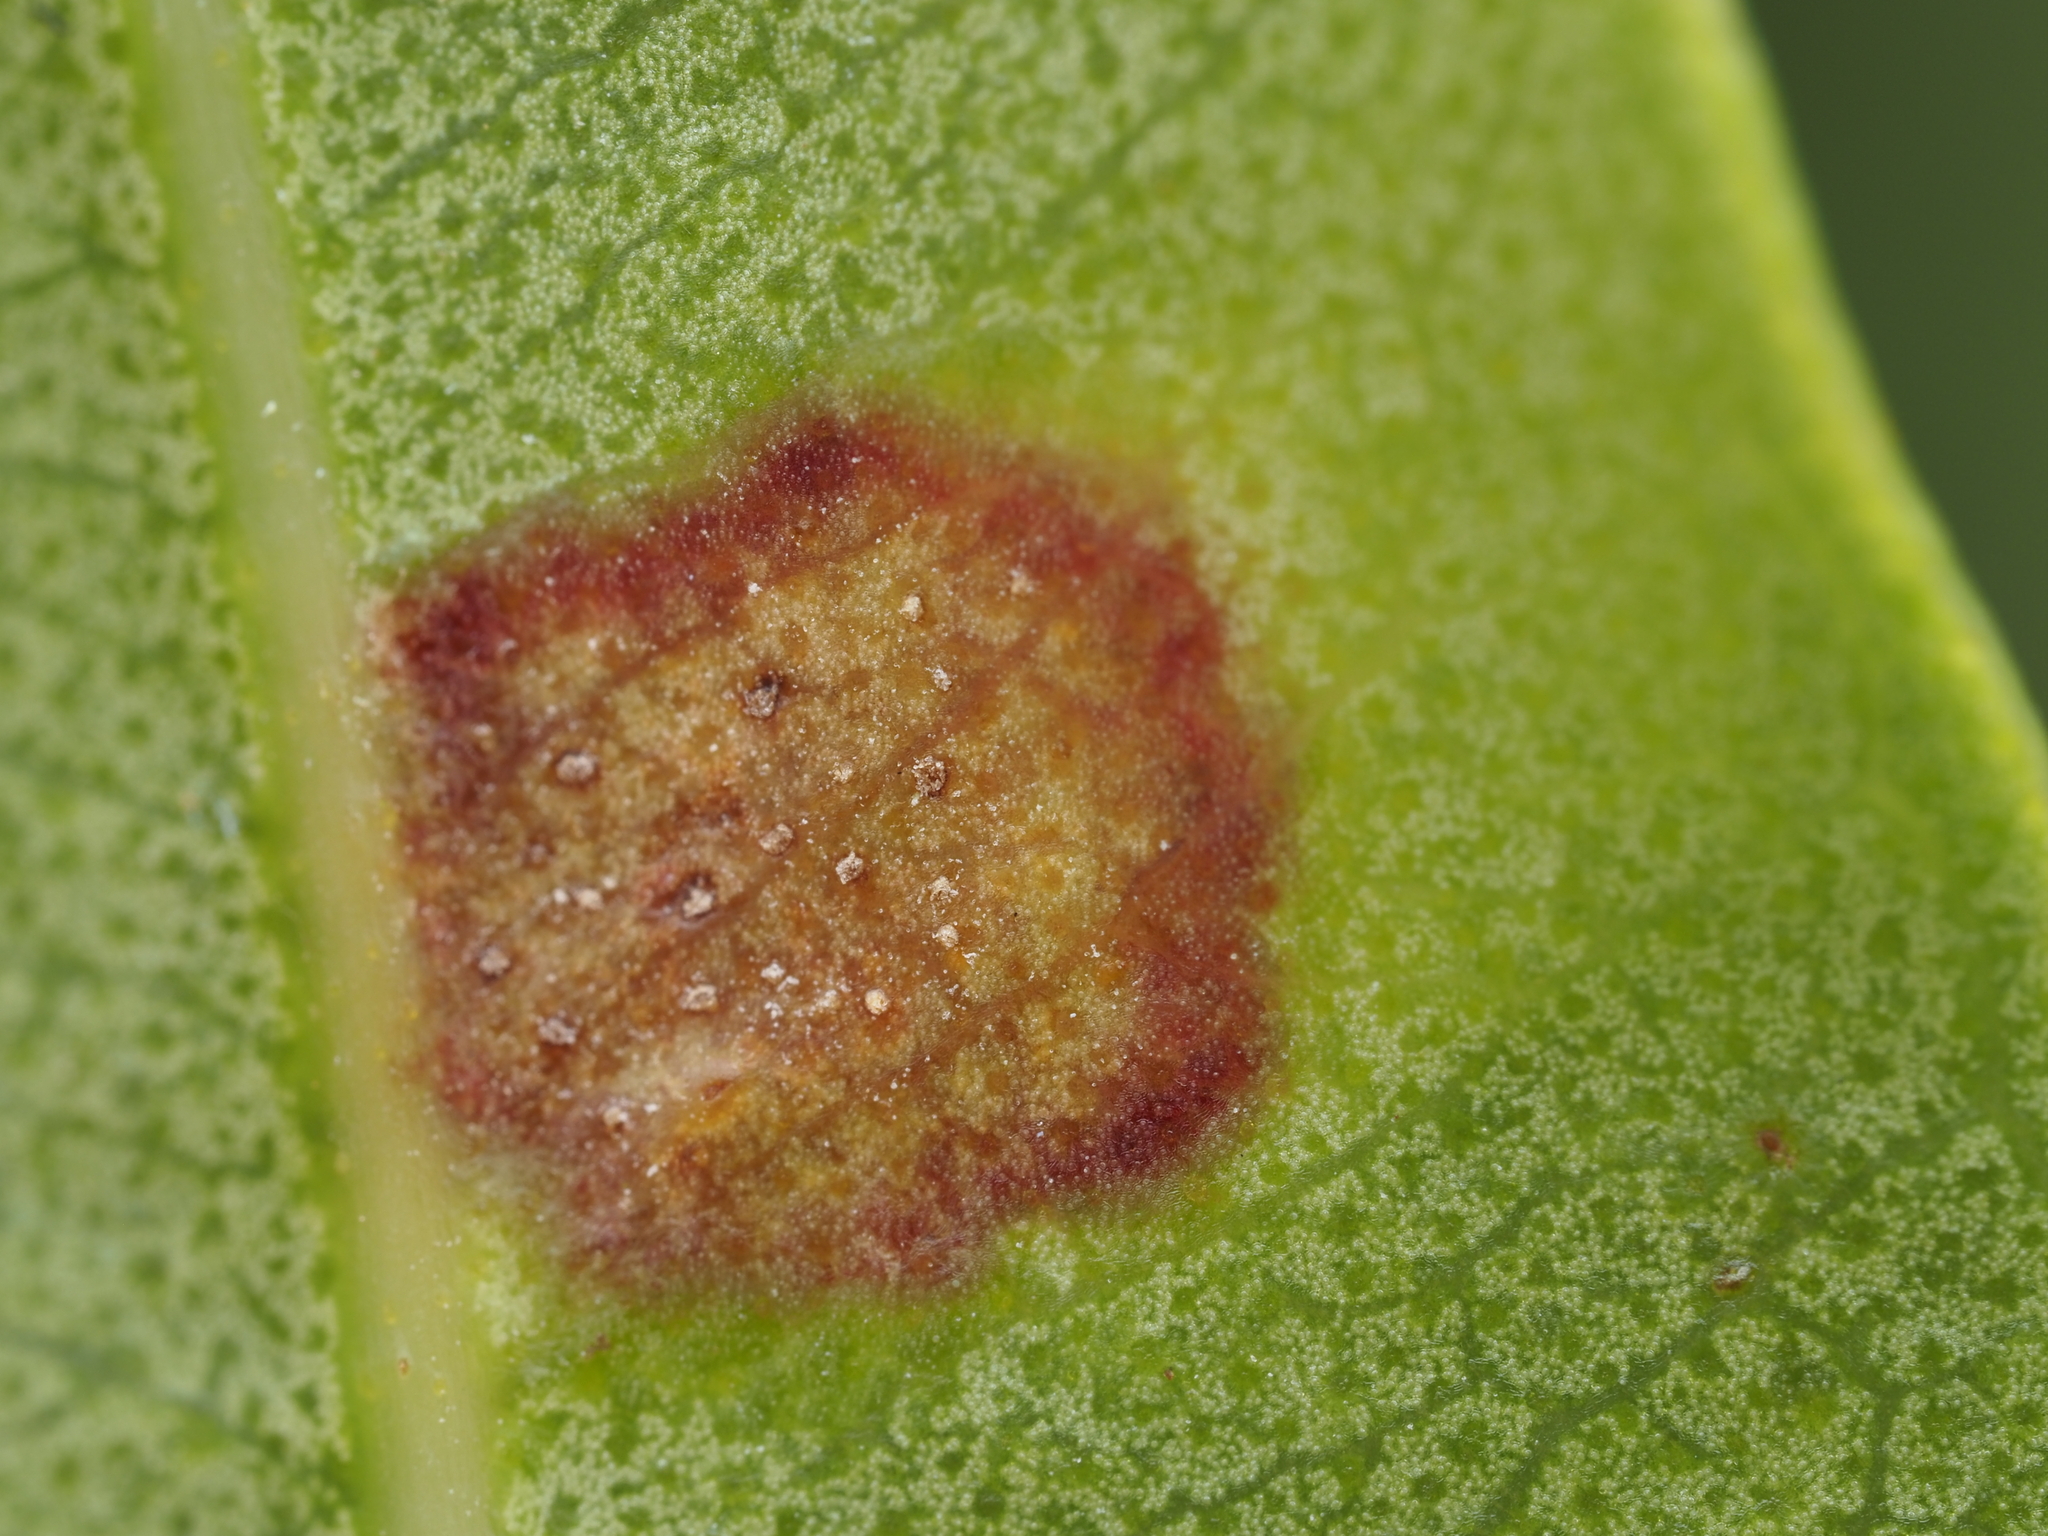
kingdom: Fungi
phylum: Basidiomycota
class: Pucciniomycetes
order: Pucciniales
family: Sphaerophragmiaceae
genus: Austropuccinia
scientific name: Austropuccinia psidii
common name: Myrtle rust
